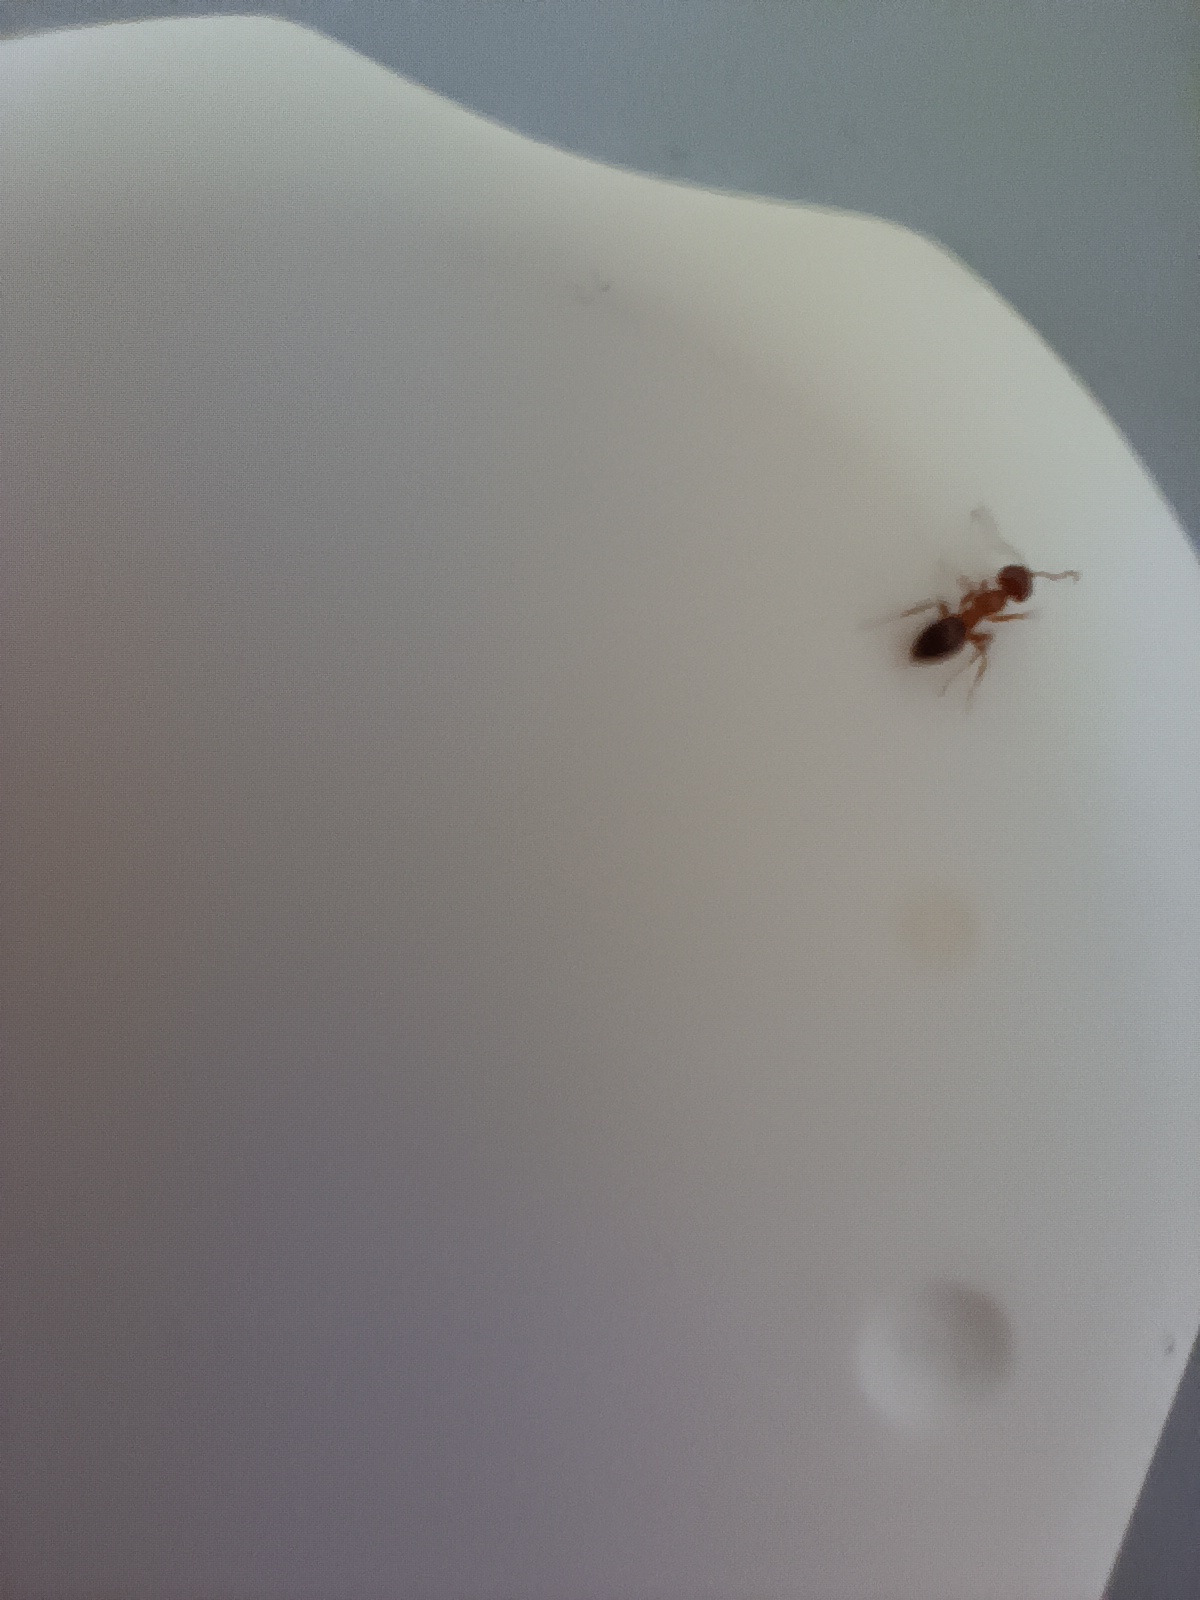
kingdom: Animalia
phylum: Arthropoda
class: Insecta
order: Hymenoptera
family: Formicidae
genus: Lasius
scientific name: Lasius brunneus
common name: Brown ant
